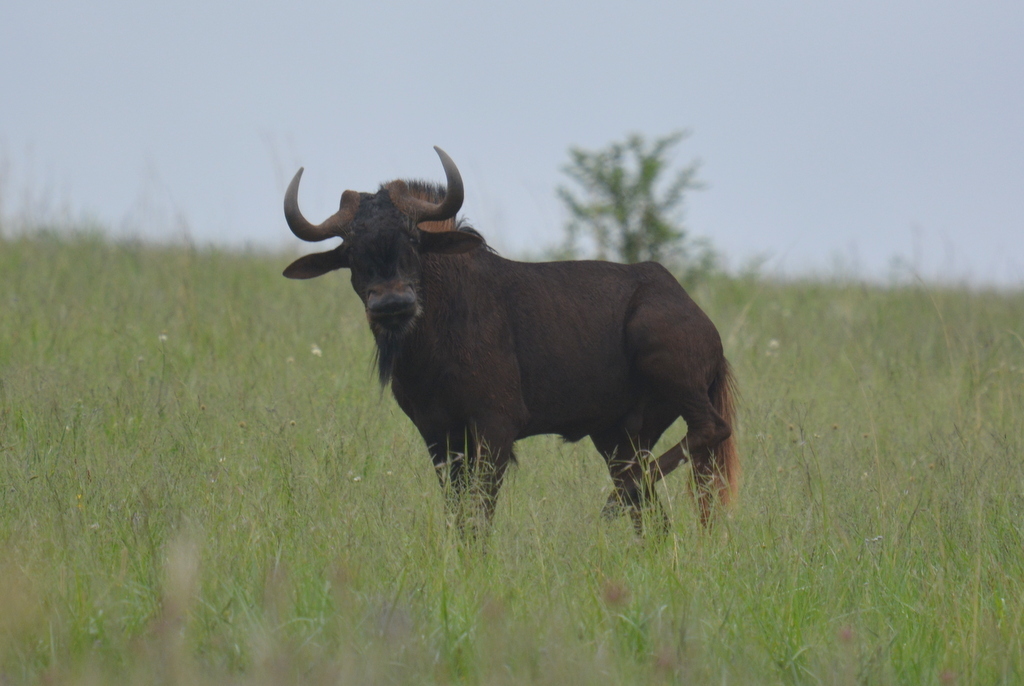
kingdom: Animalia
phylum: Chordata
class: Mammalia
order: Artiodactyla
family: Bovidae
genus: Connochaetes
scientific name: Connochaetes gnou
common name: Black wildebeest
